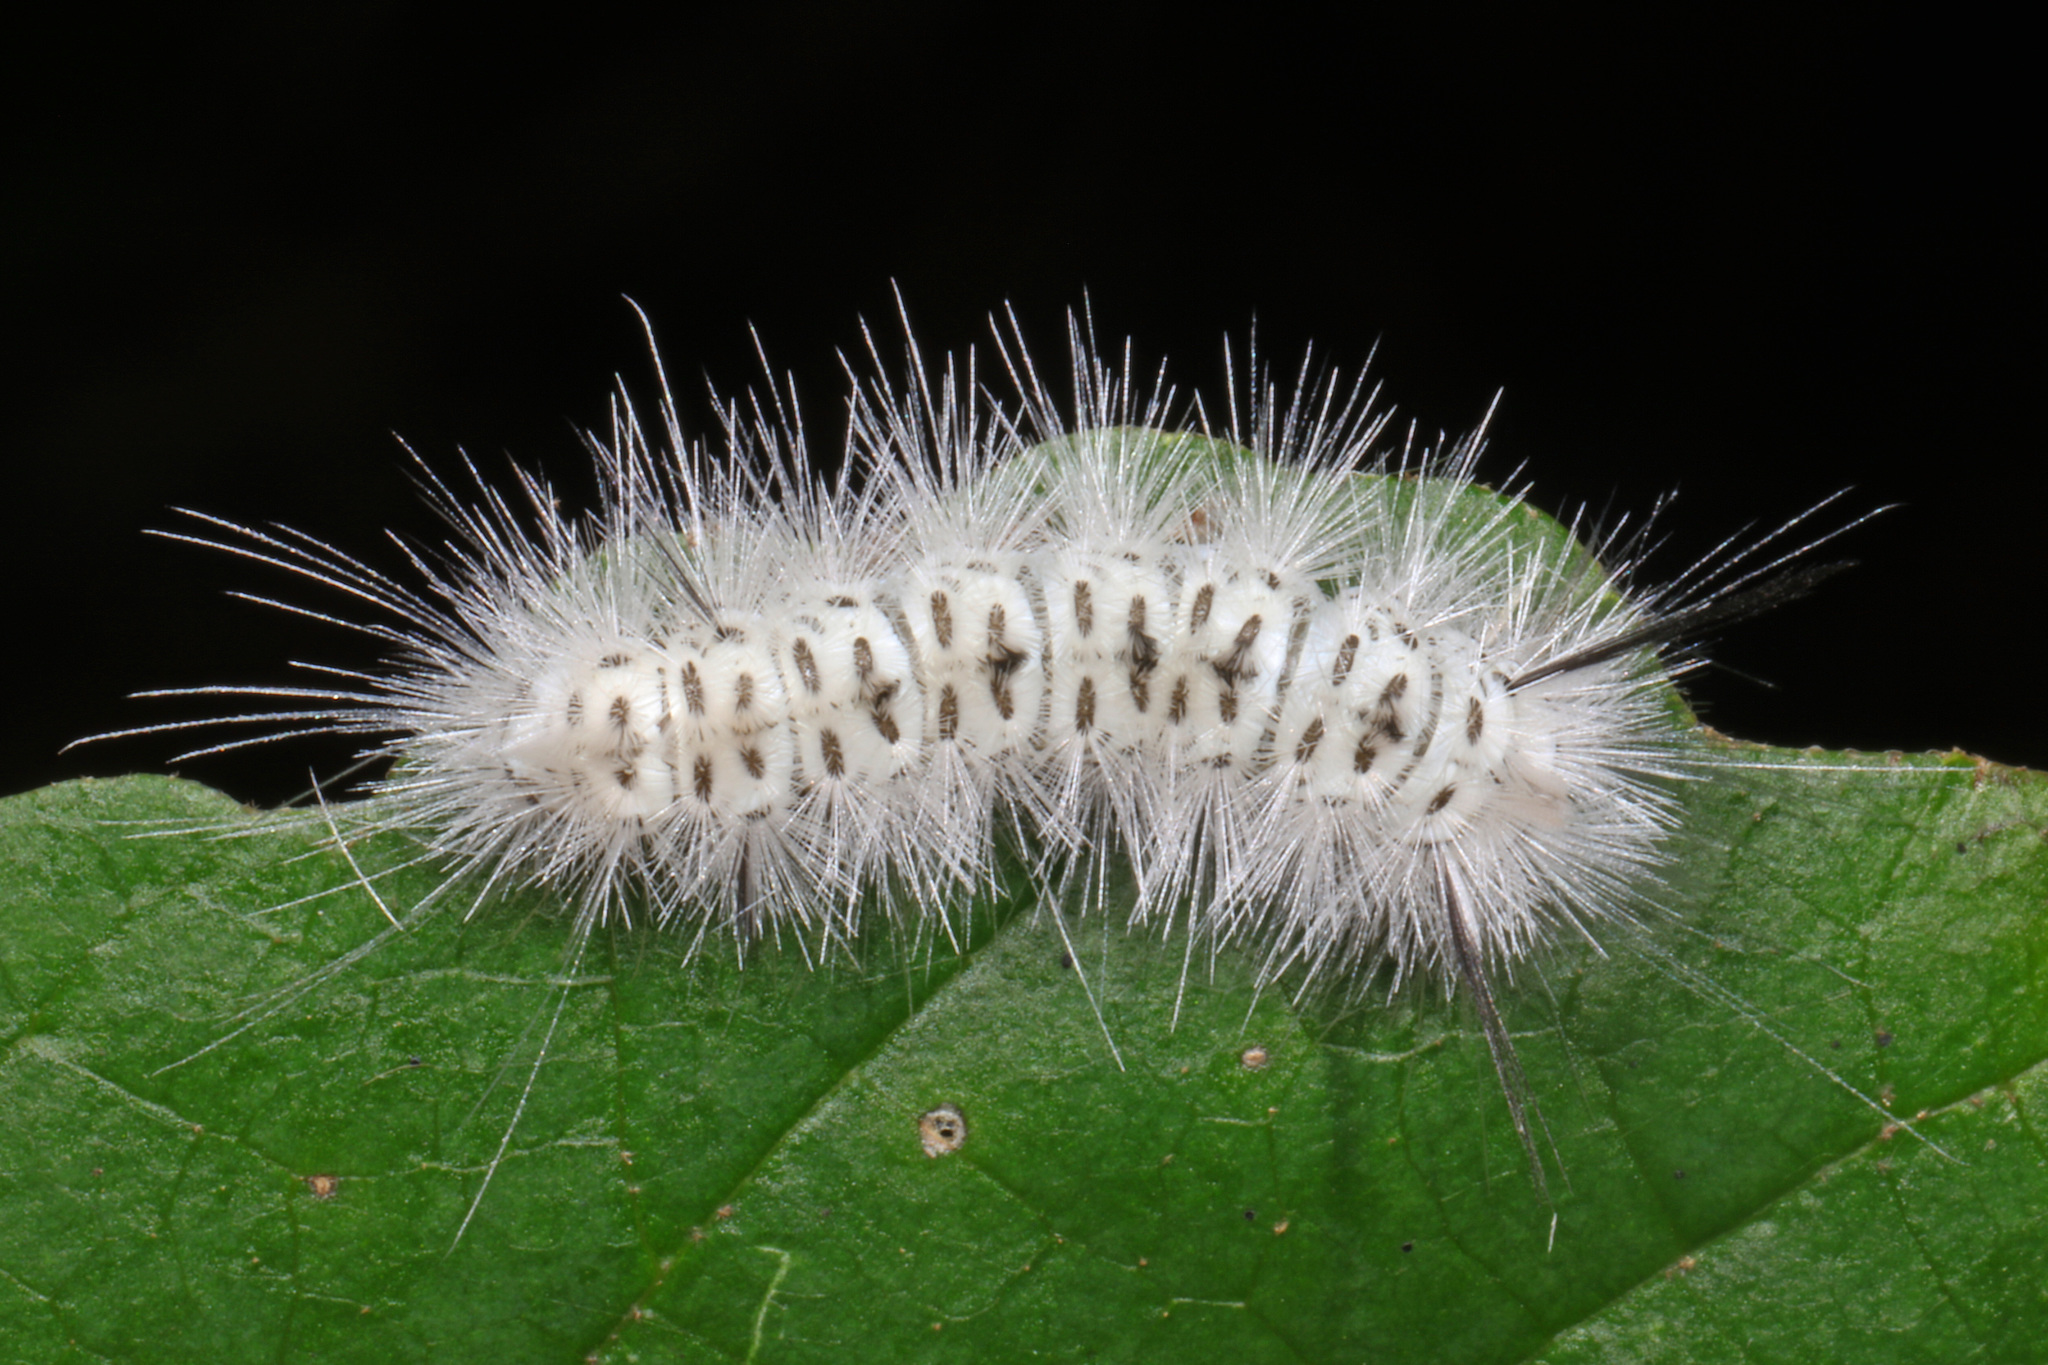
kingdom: Animalia
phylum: Arthropoda
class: Insecta
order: Lepidoptera
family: Erebidae
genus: Lophocampa
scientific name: Lophocampa caryae
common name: Hickory tussock moth
